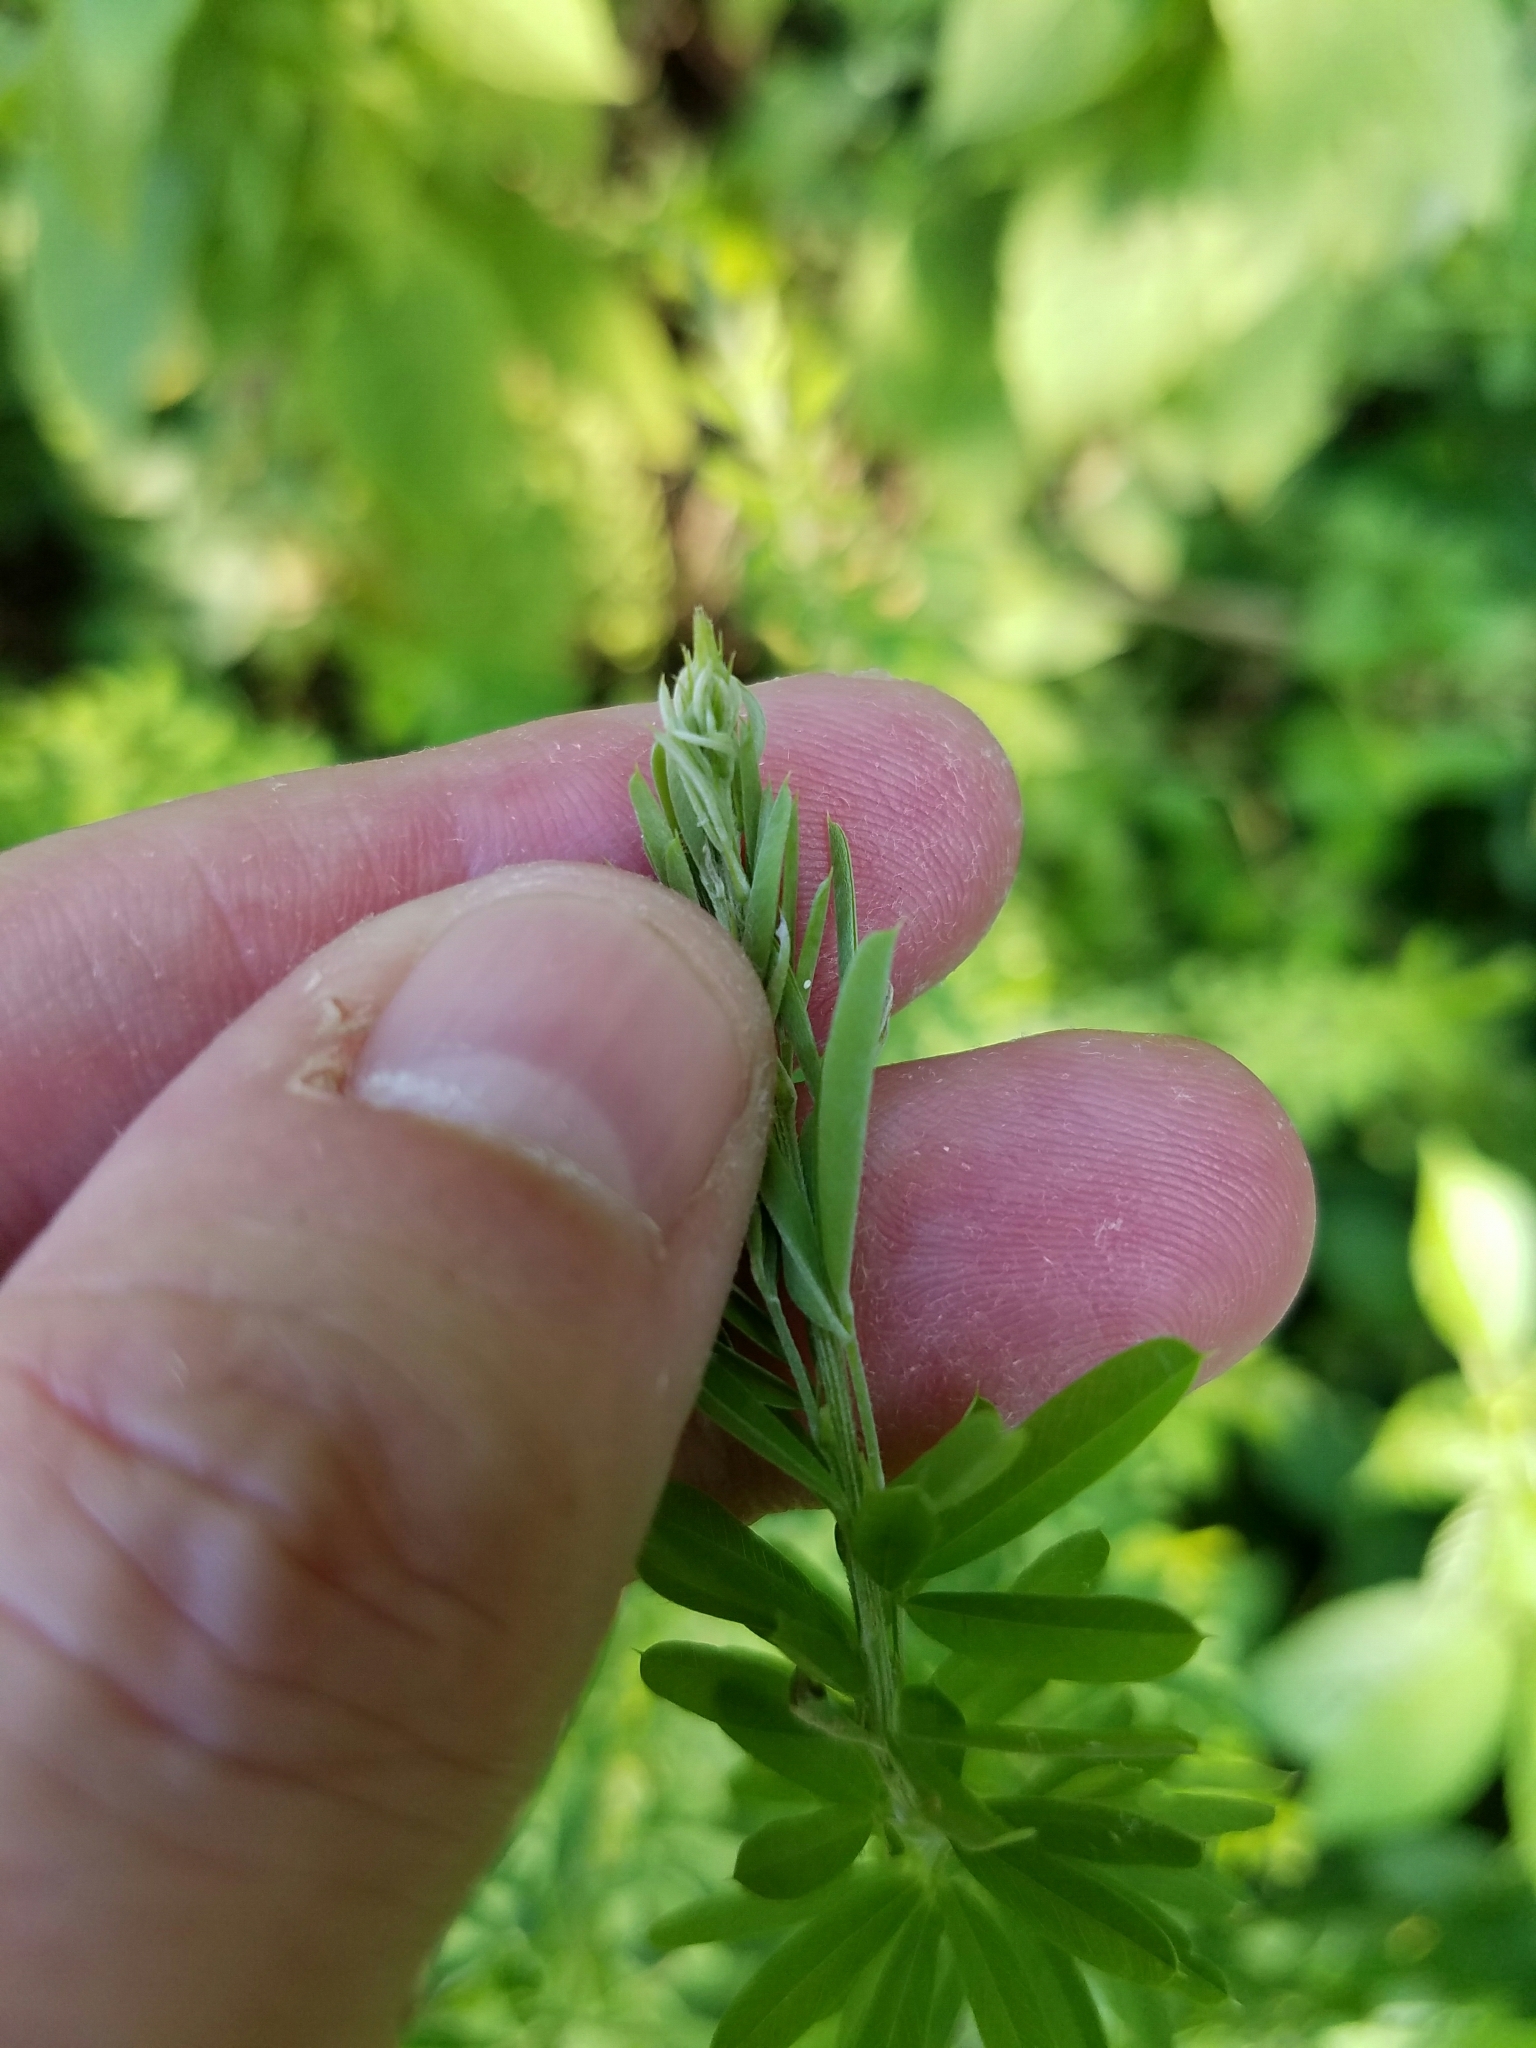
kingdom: Plantae
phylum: Tracheophyta
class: Magnoliopsida
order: Fabales
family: Fabaceae
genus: Lespedeza
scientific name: Lespedeza cuneata
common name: Chinese bush-clover
